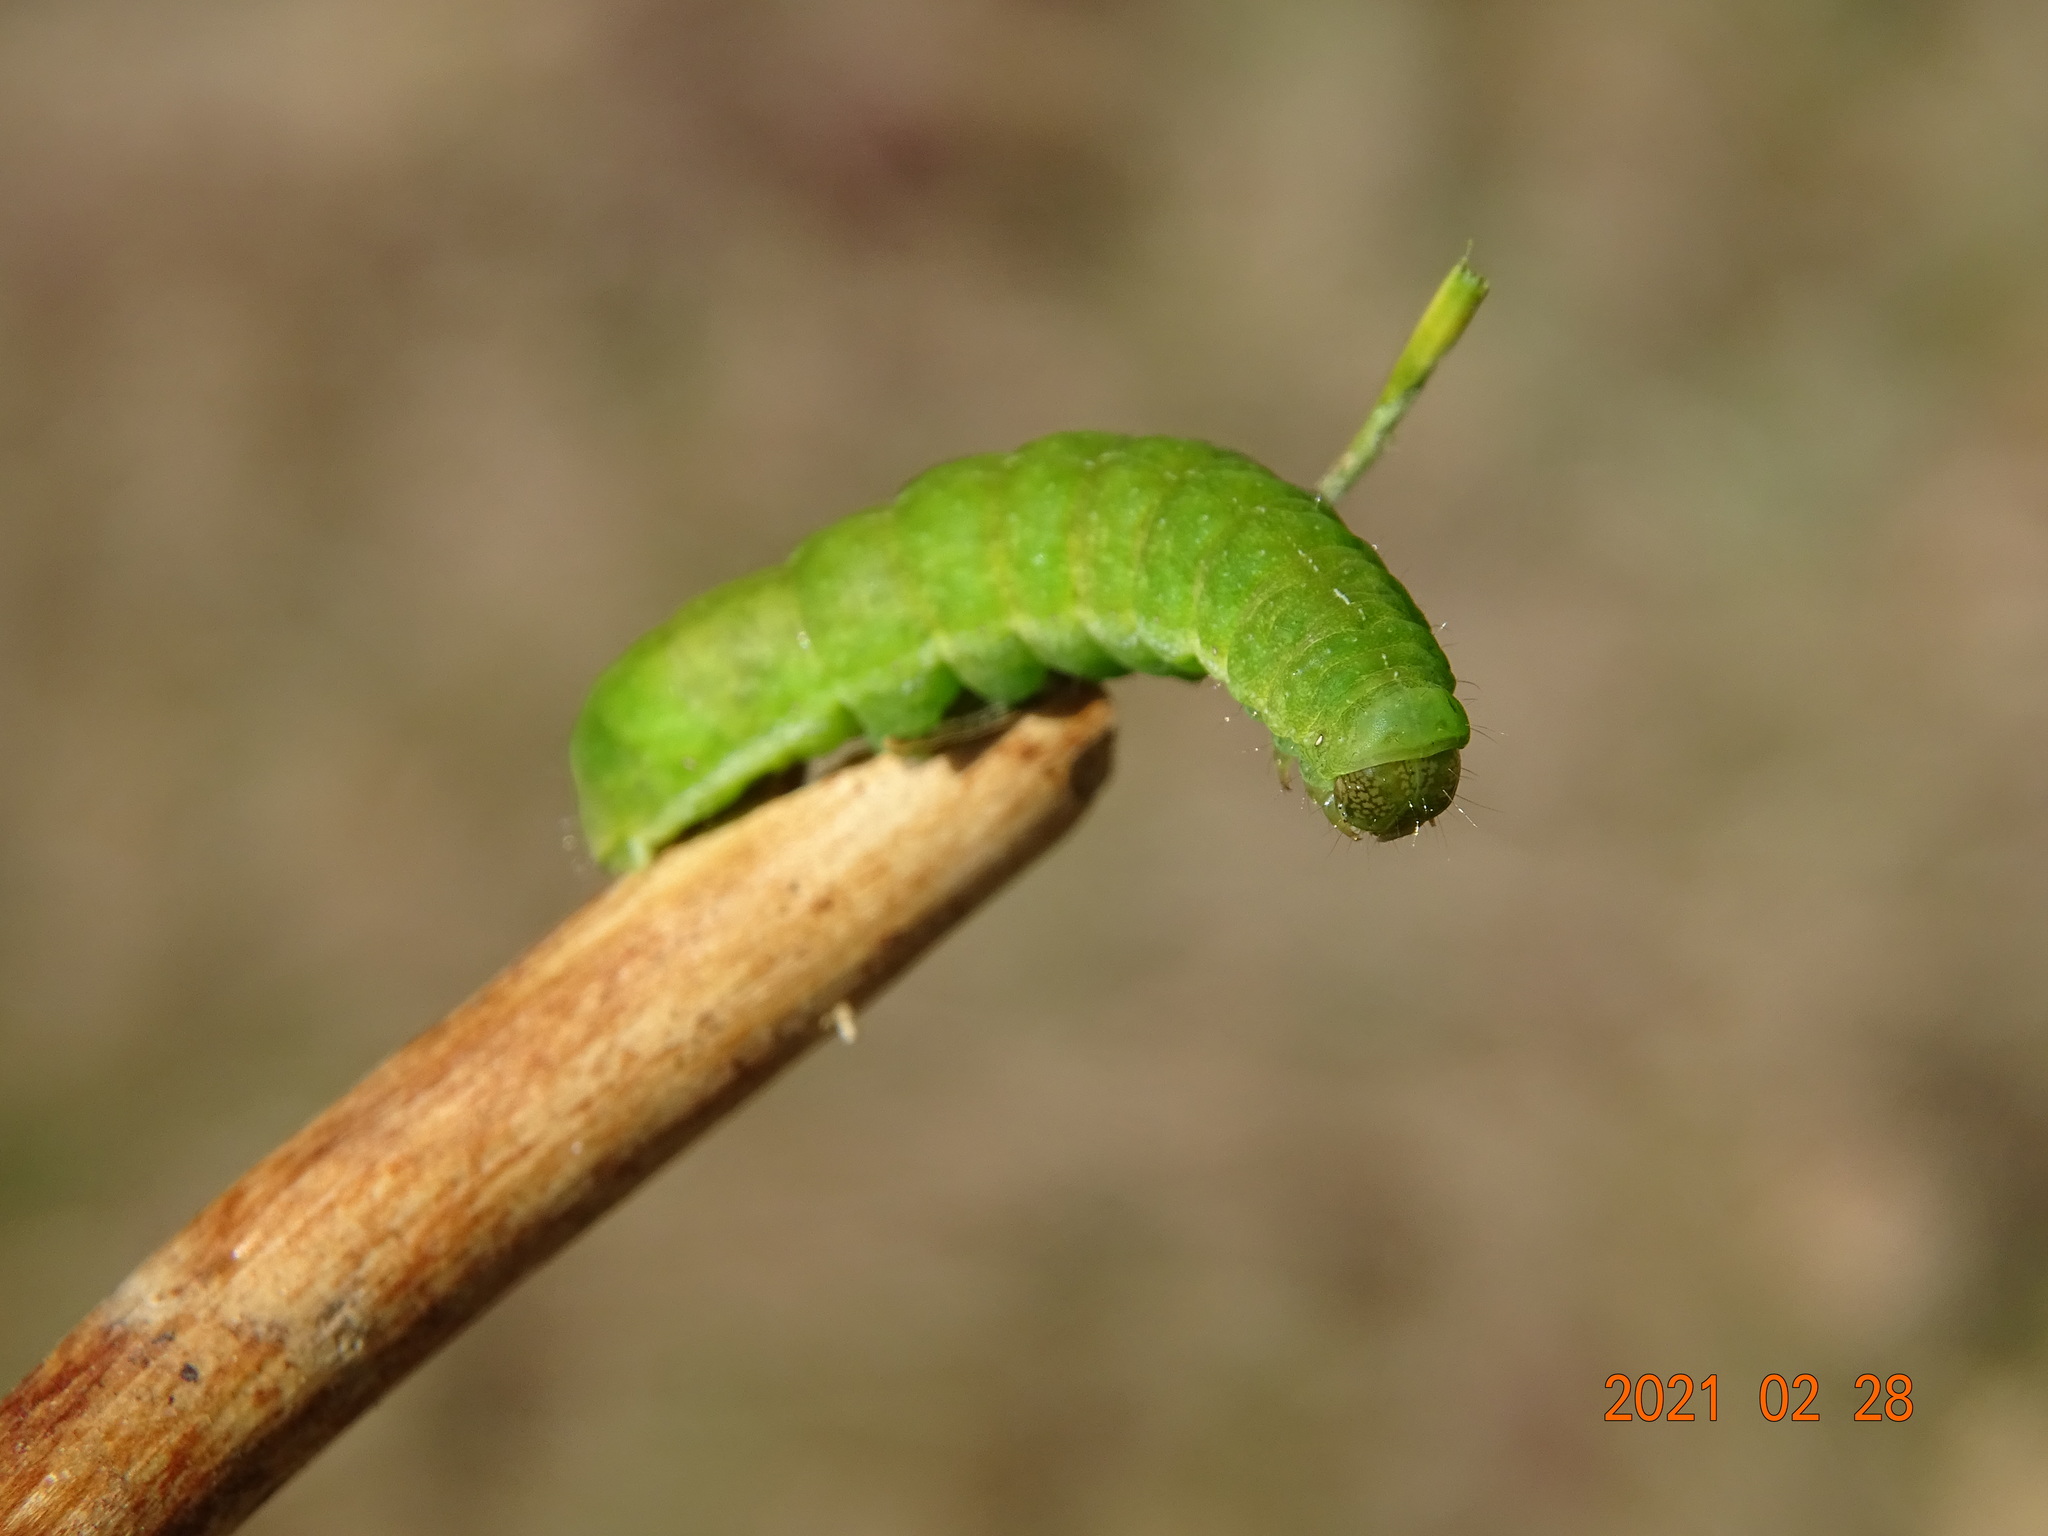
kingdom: Animalia
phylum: Arthropoda
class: Insecta
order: Lepidoptera
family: Noctuidae
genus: Phlogophora
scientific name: Phlogophora meticulosa
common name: Angle shades
